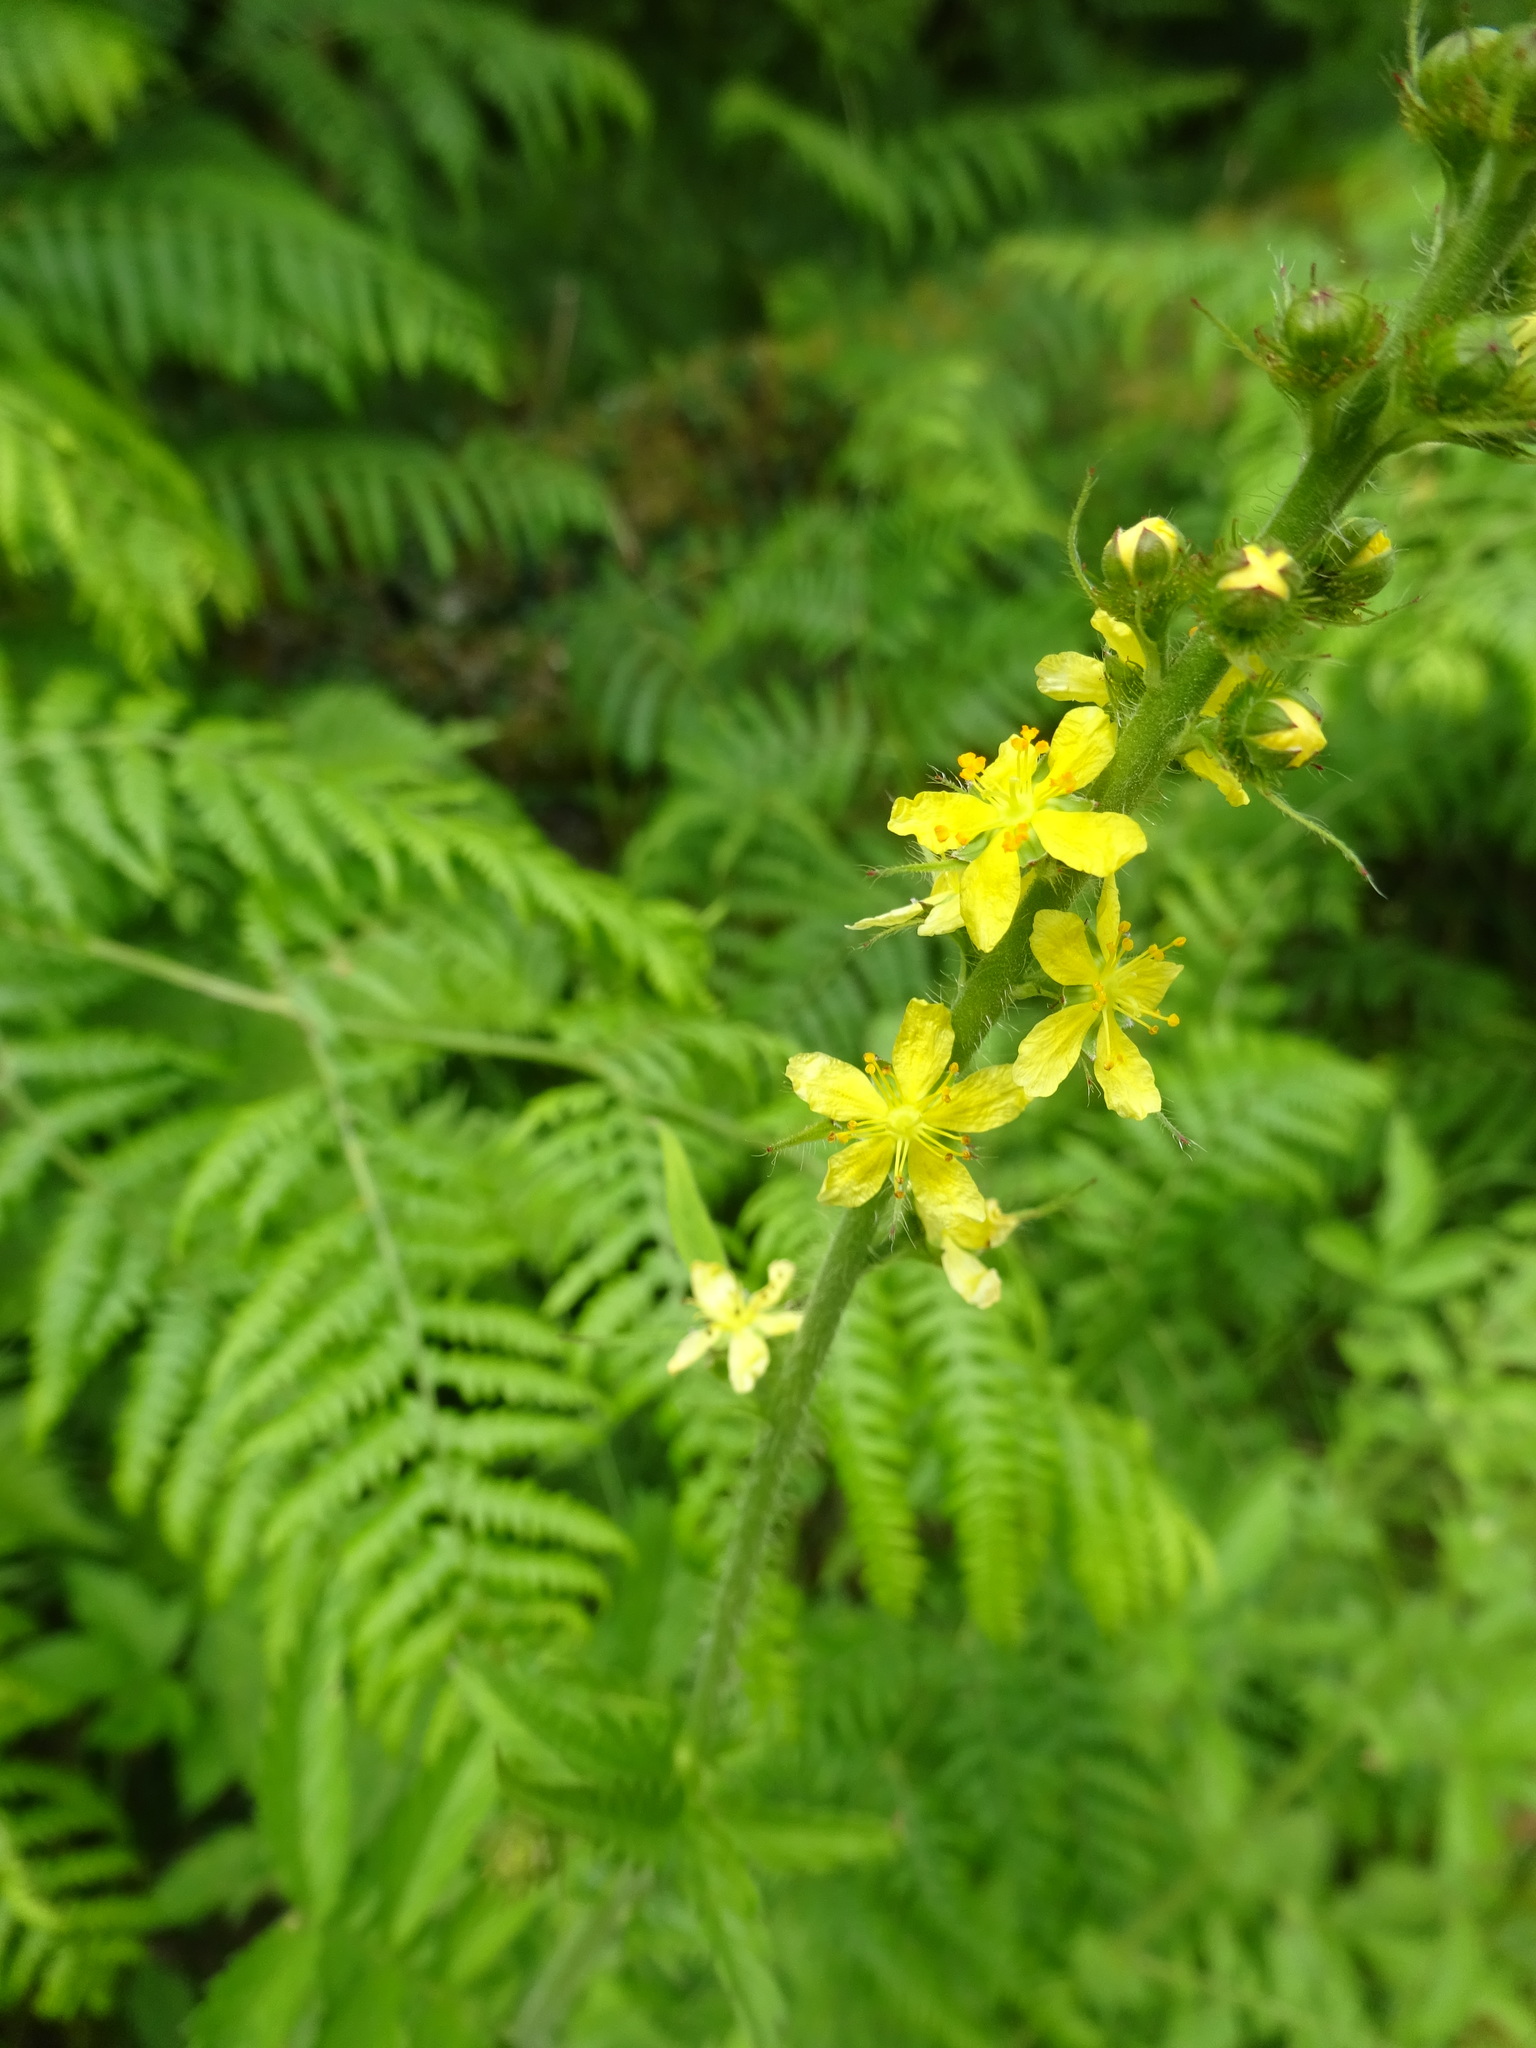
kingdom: Plantae
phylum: Tracheophyta
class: Magnoliopsida
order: Rosales
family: Rosaceae
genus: Agrimonia
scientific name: Agrimonia eupatoria
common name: Agrimony
